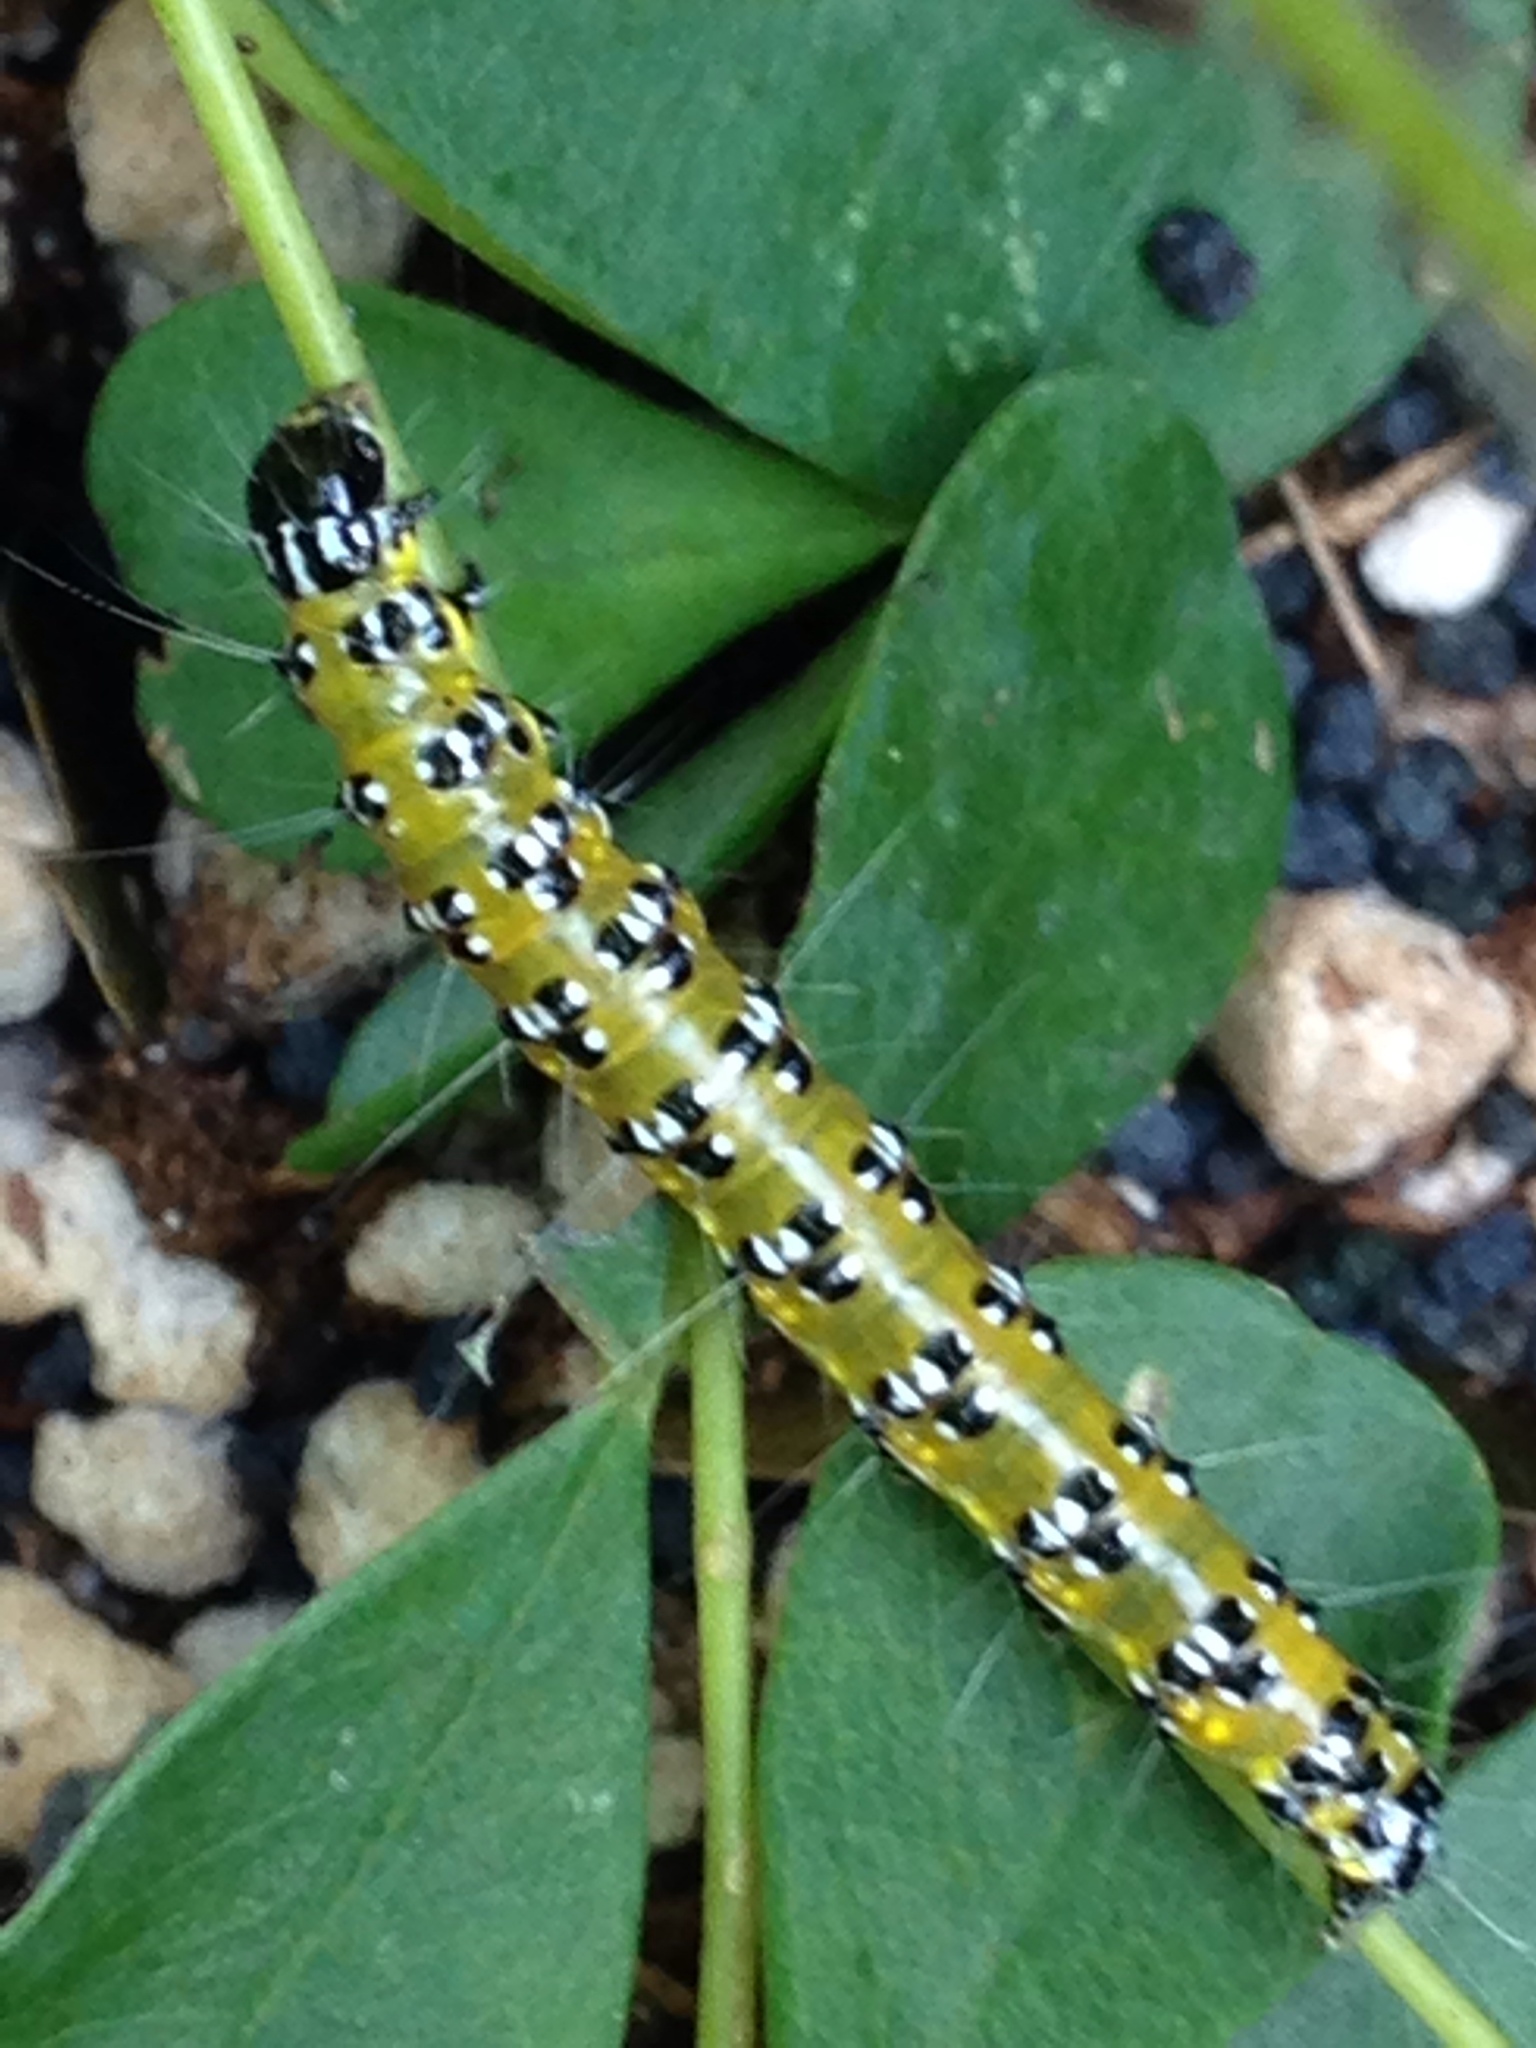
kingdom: Animalia
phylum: Arthropoda
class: Insecta
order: Lepidoptera
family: Crambidae
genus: Uresiphita
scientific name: Uresiphita reversalis
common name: Genista broom moth
